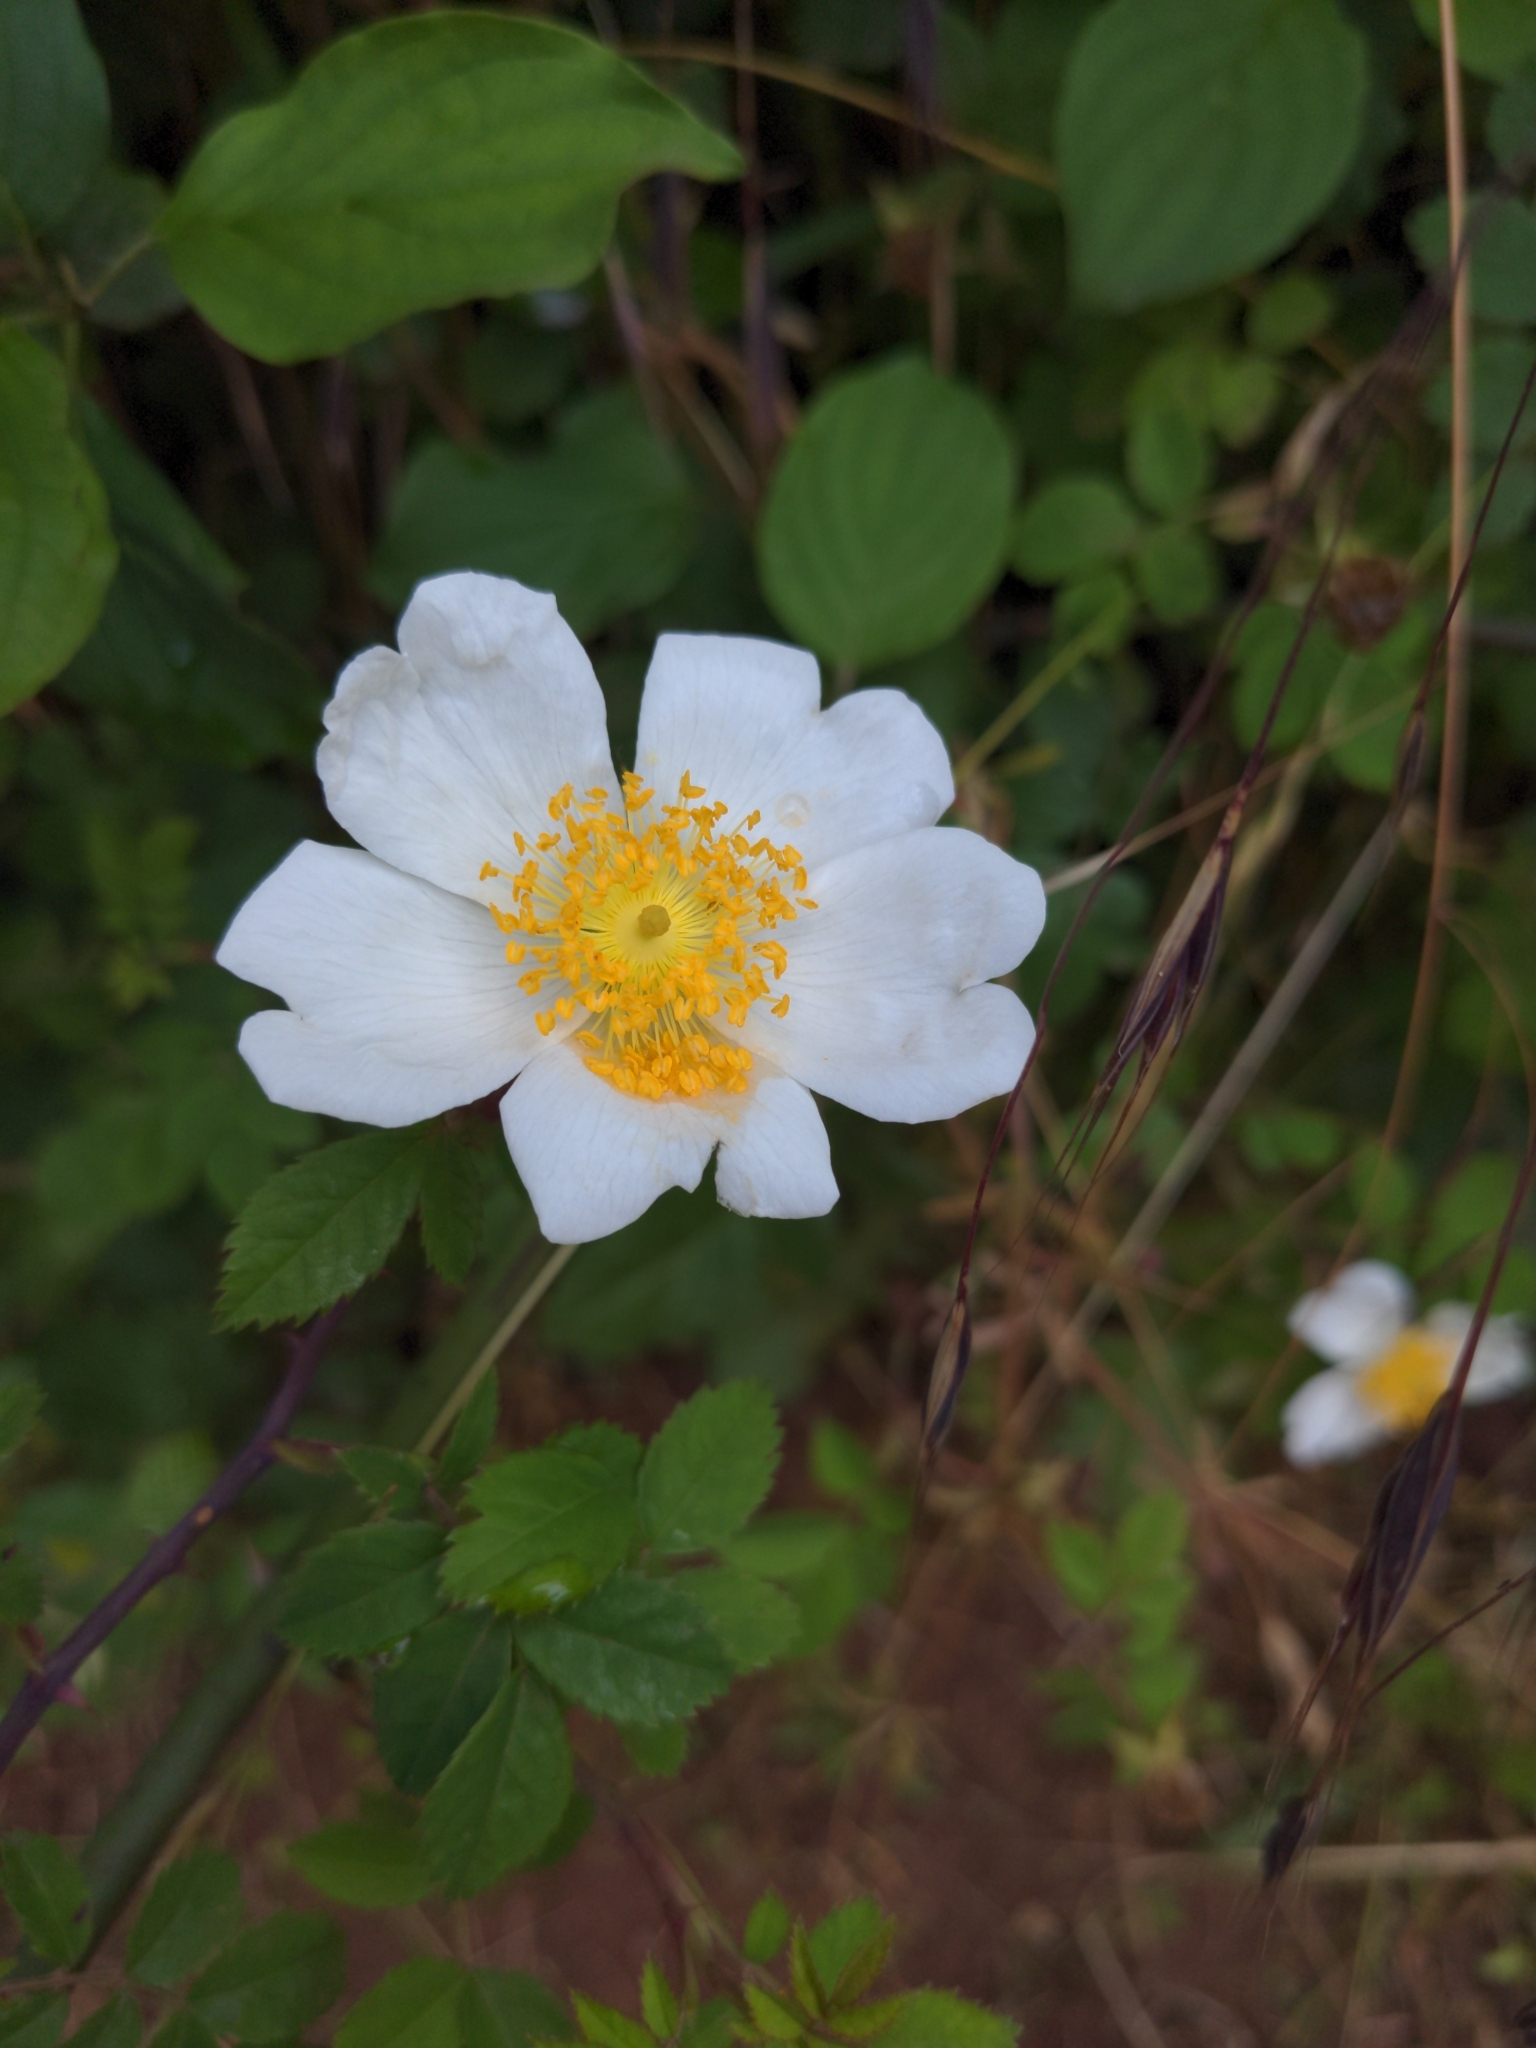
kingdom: Plantae
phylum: Tracheophyta
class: Magnoliopsida
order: Rosales
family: Rosaceae
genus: Rosa
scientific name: Rosa arvensis
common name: Field rose
